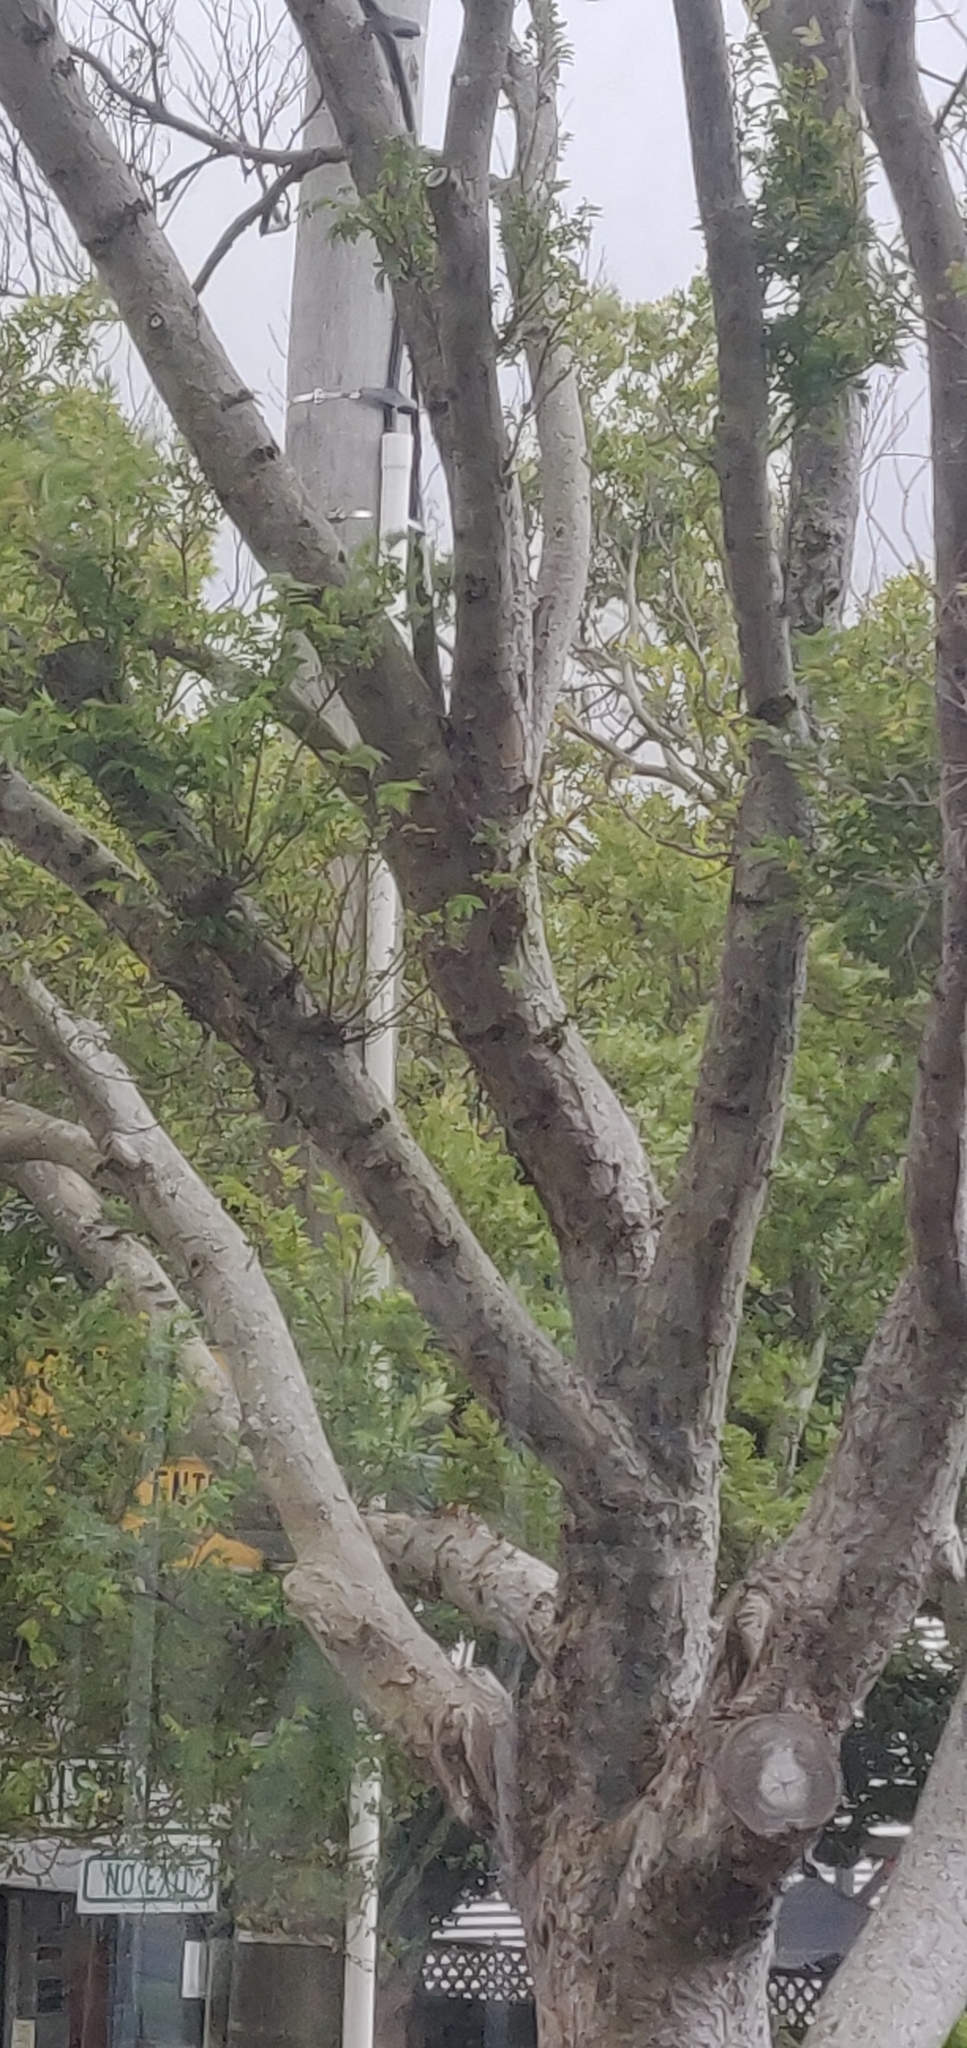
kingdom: Animalia
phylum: Chordata
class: Aves
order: Psittaciformes
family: Psittacidae
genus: Nestor
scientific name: Nestor meridionalis
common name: New zealand kaka
